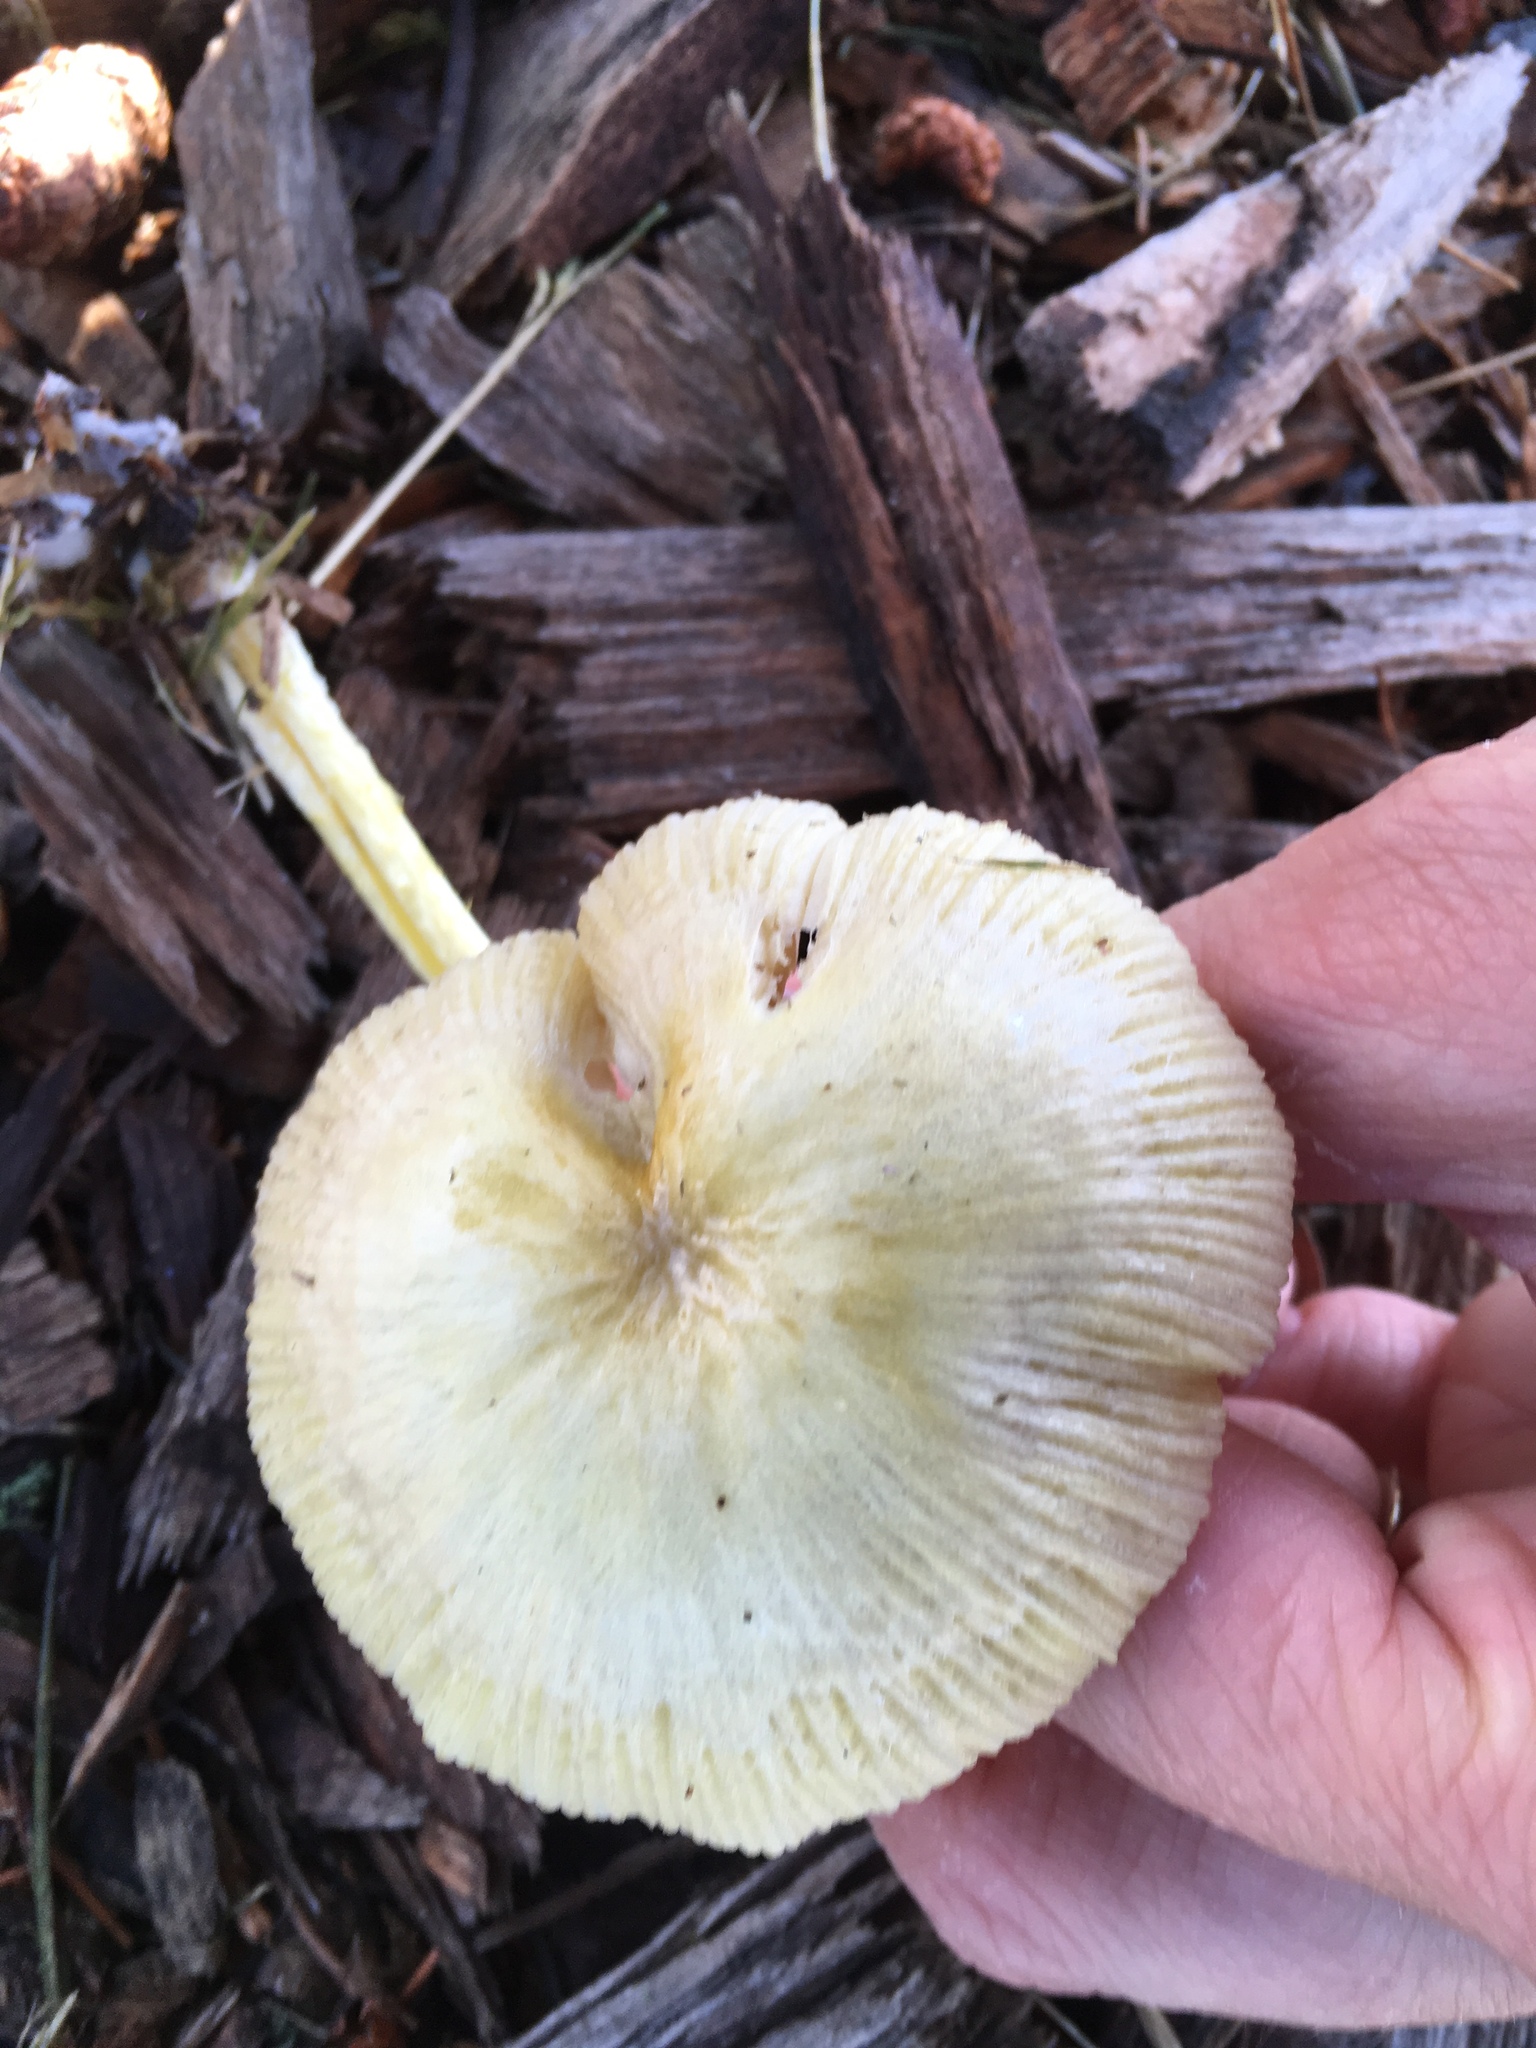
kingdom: Fungi
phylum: Basidiomycota
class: Agaricomycetes
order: Agaricales
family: Bolbitiaceae
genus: Bolbitius
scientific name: Bolbitius titubans
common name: Yellow fieldcap
